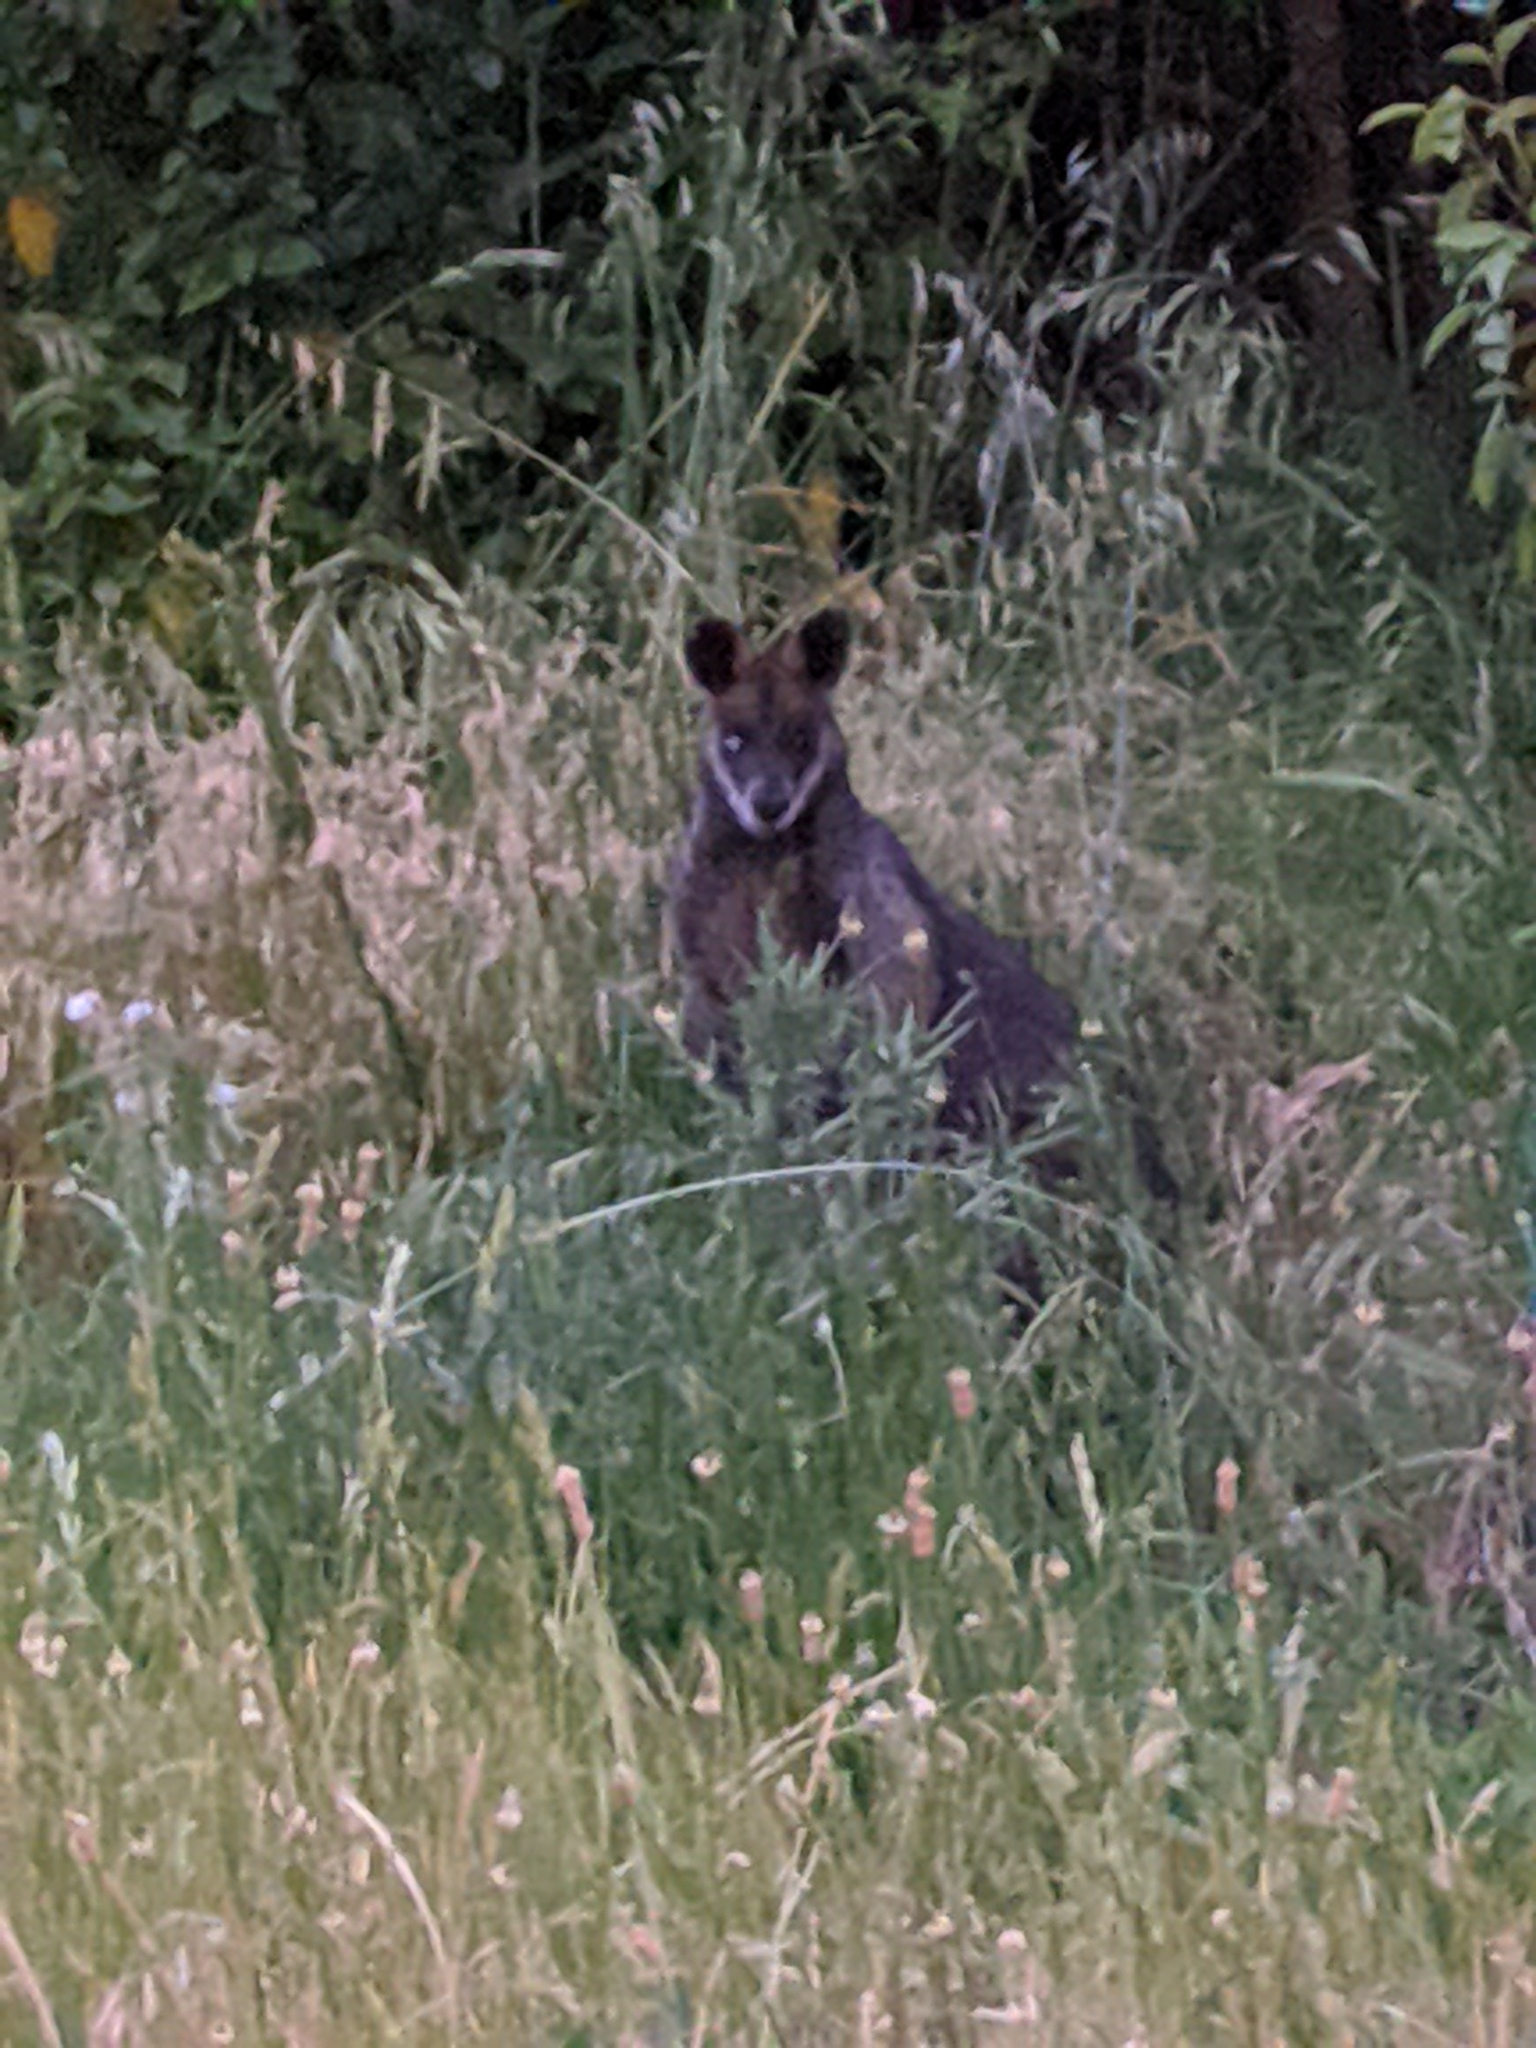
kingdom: Animalia
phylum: Chordata
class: Mammalia
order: Diprotodontia
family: Macropodidae
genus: Wallabia
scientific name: Wallabia bicolor
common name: Swamp wallaby
